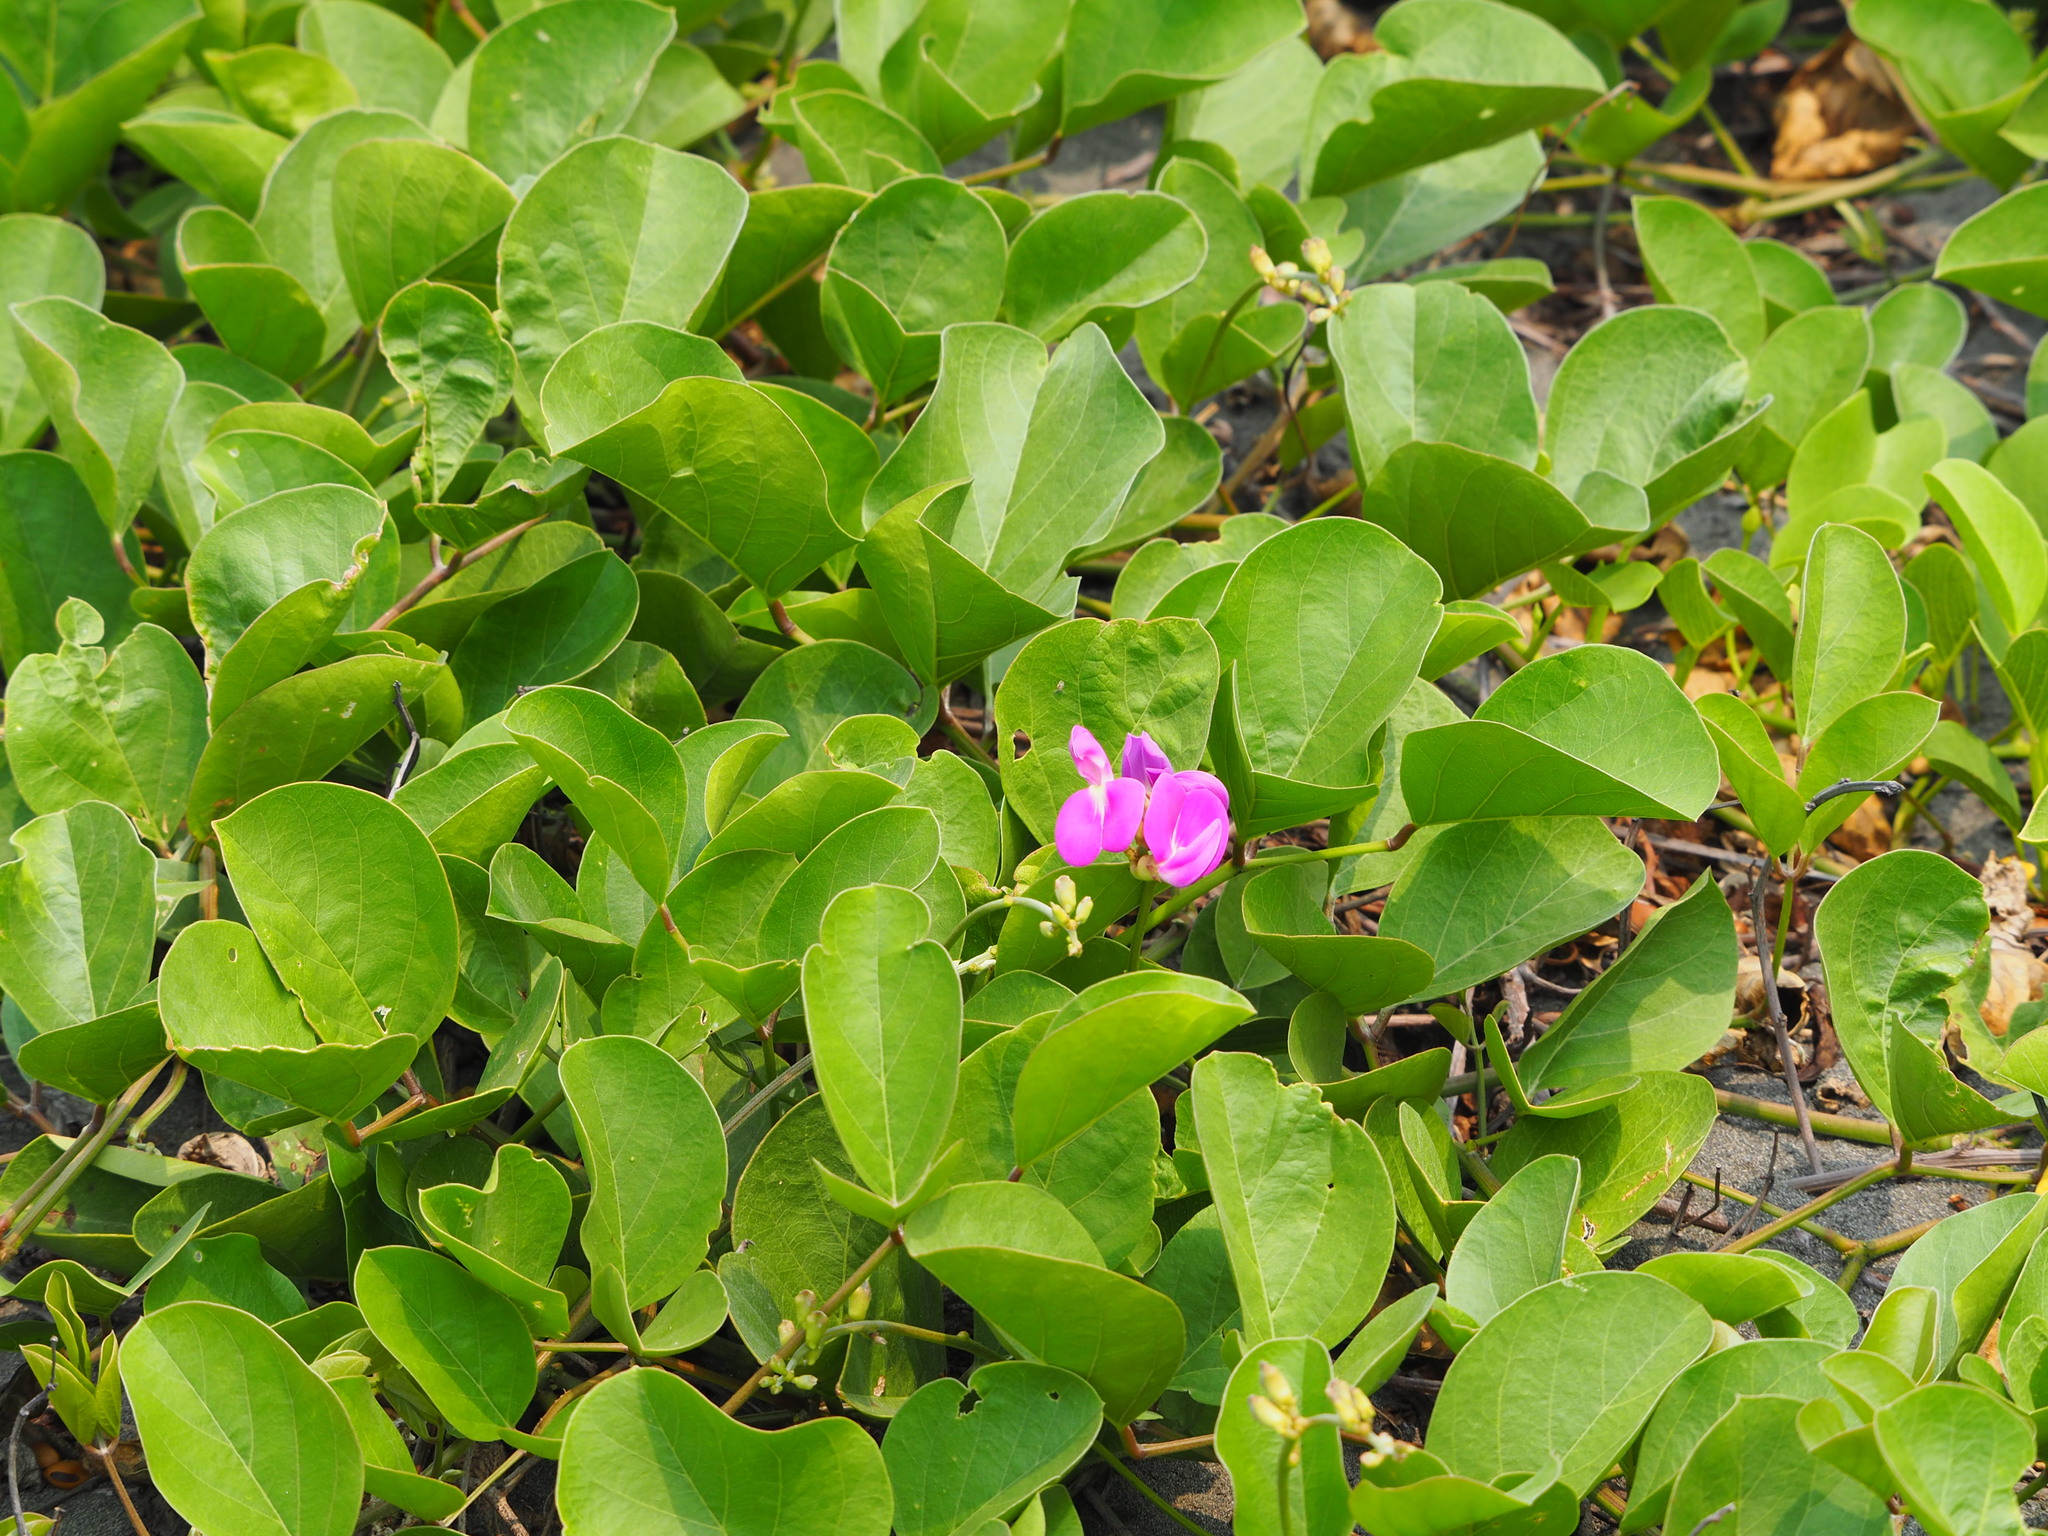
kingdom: Plantae
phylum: Tracheophyta
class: Magnoliopsida
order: Fabales
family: Fabaceae
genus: Canavalia
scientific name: Canavalia rosea
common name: Beach-bean
